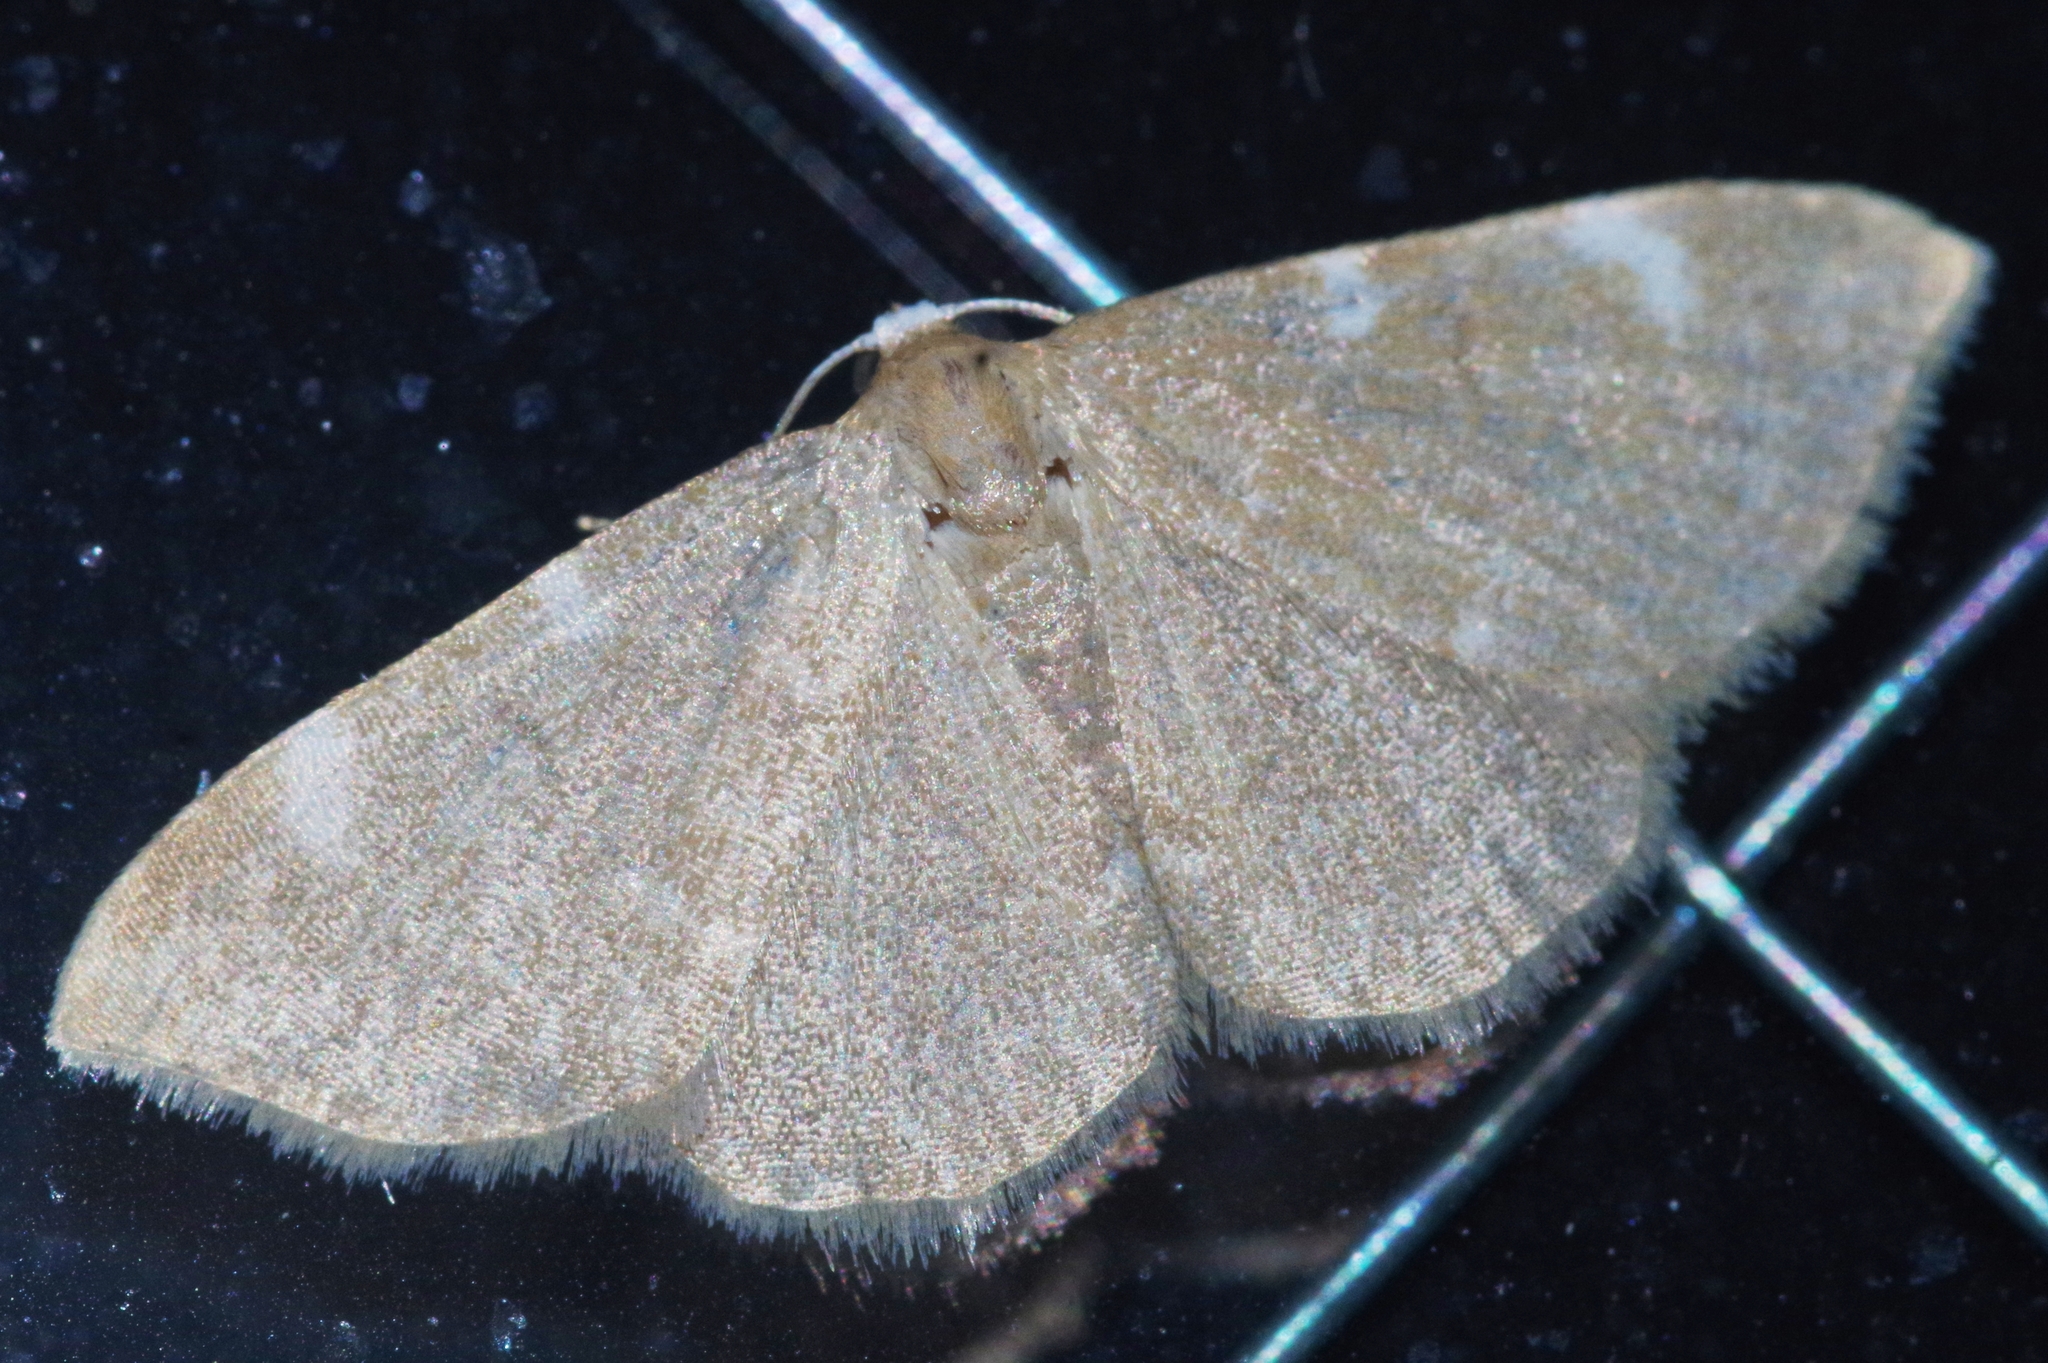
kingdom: Animalia
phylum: Arthropoda
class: Insecta
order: Lepidoptera
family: Noctuidae
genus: Enispa
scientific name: Enispa
